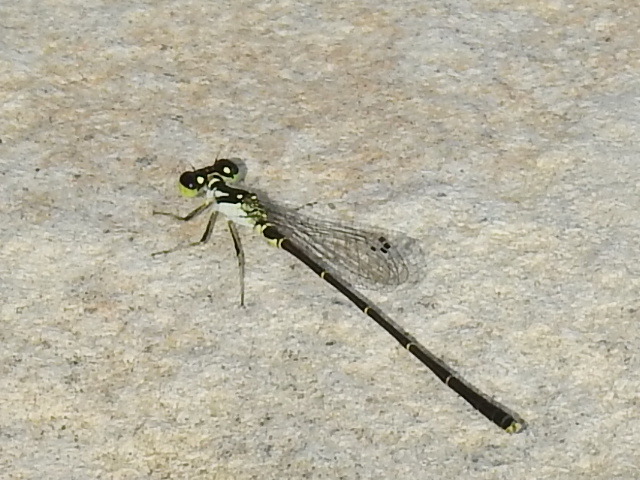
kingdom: Animalia
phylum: Arthropoda
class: Insecta
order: Odonata
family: Coenagrionidae
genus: Ischnura
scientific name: Ischnura posita
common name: Fragile forktail
